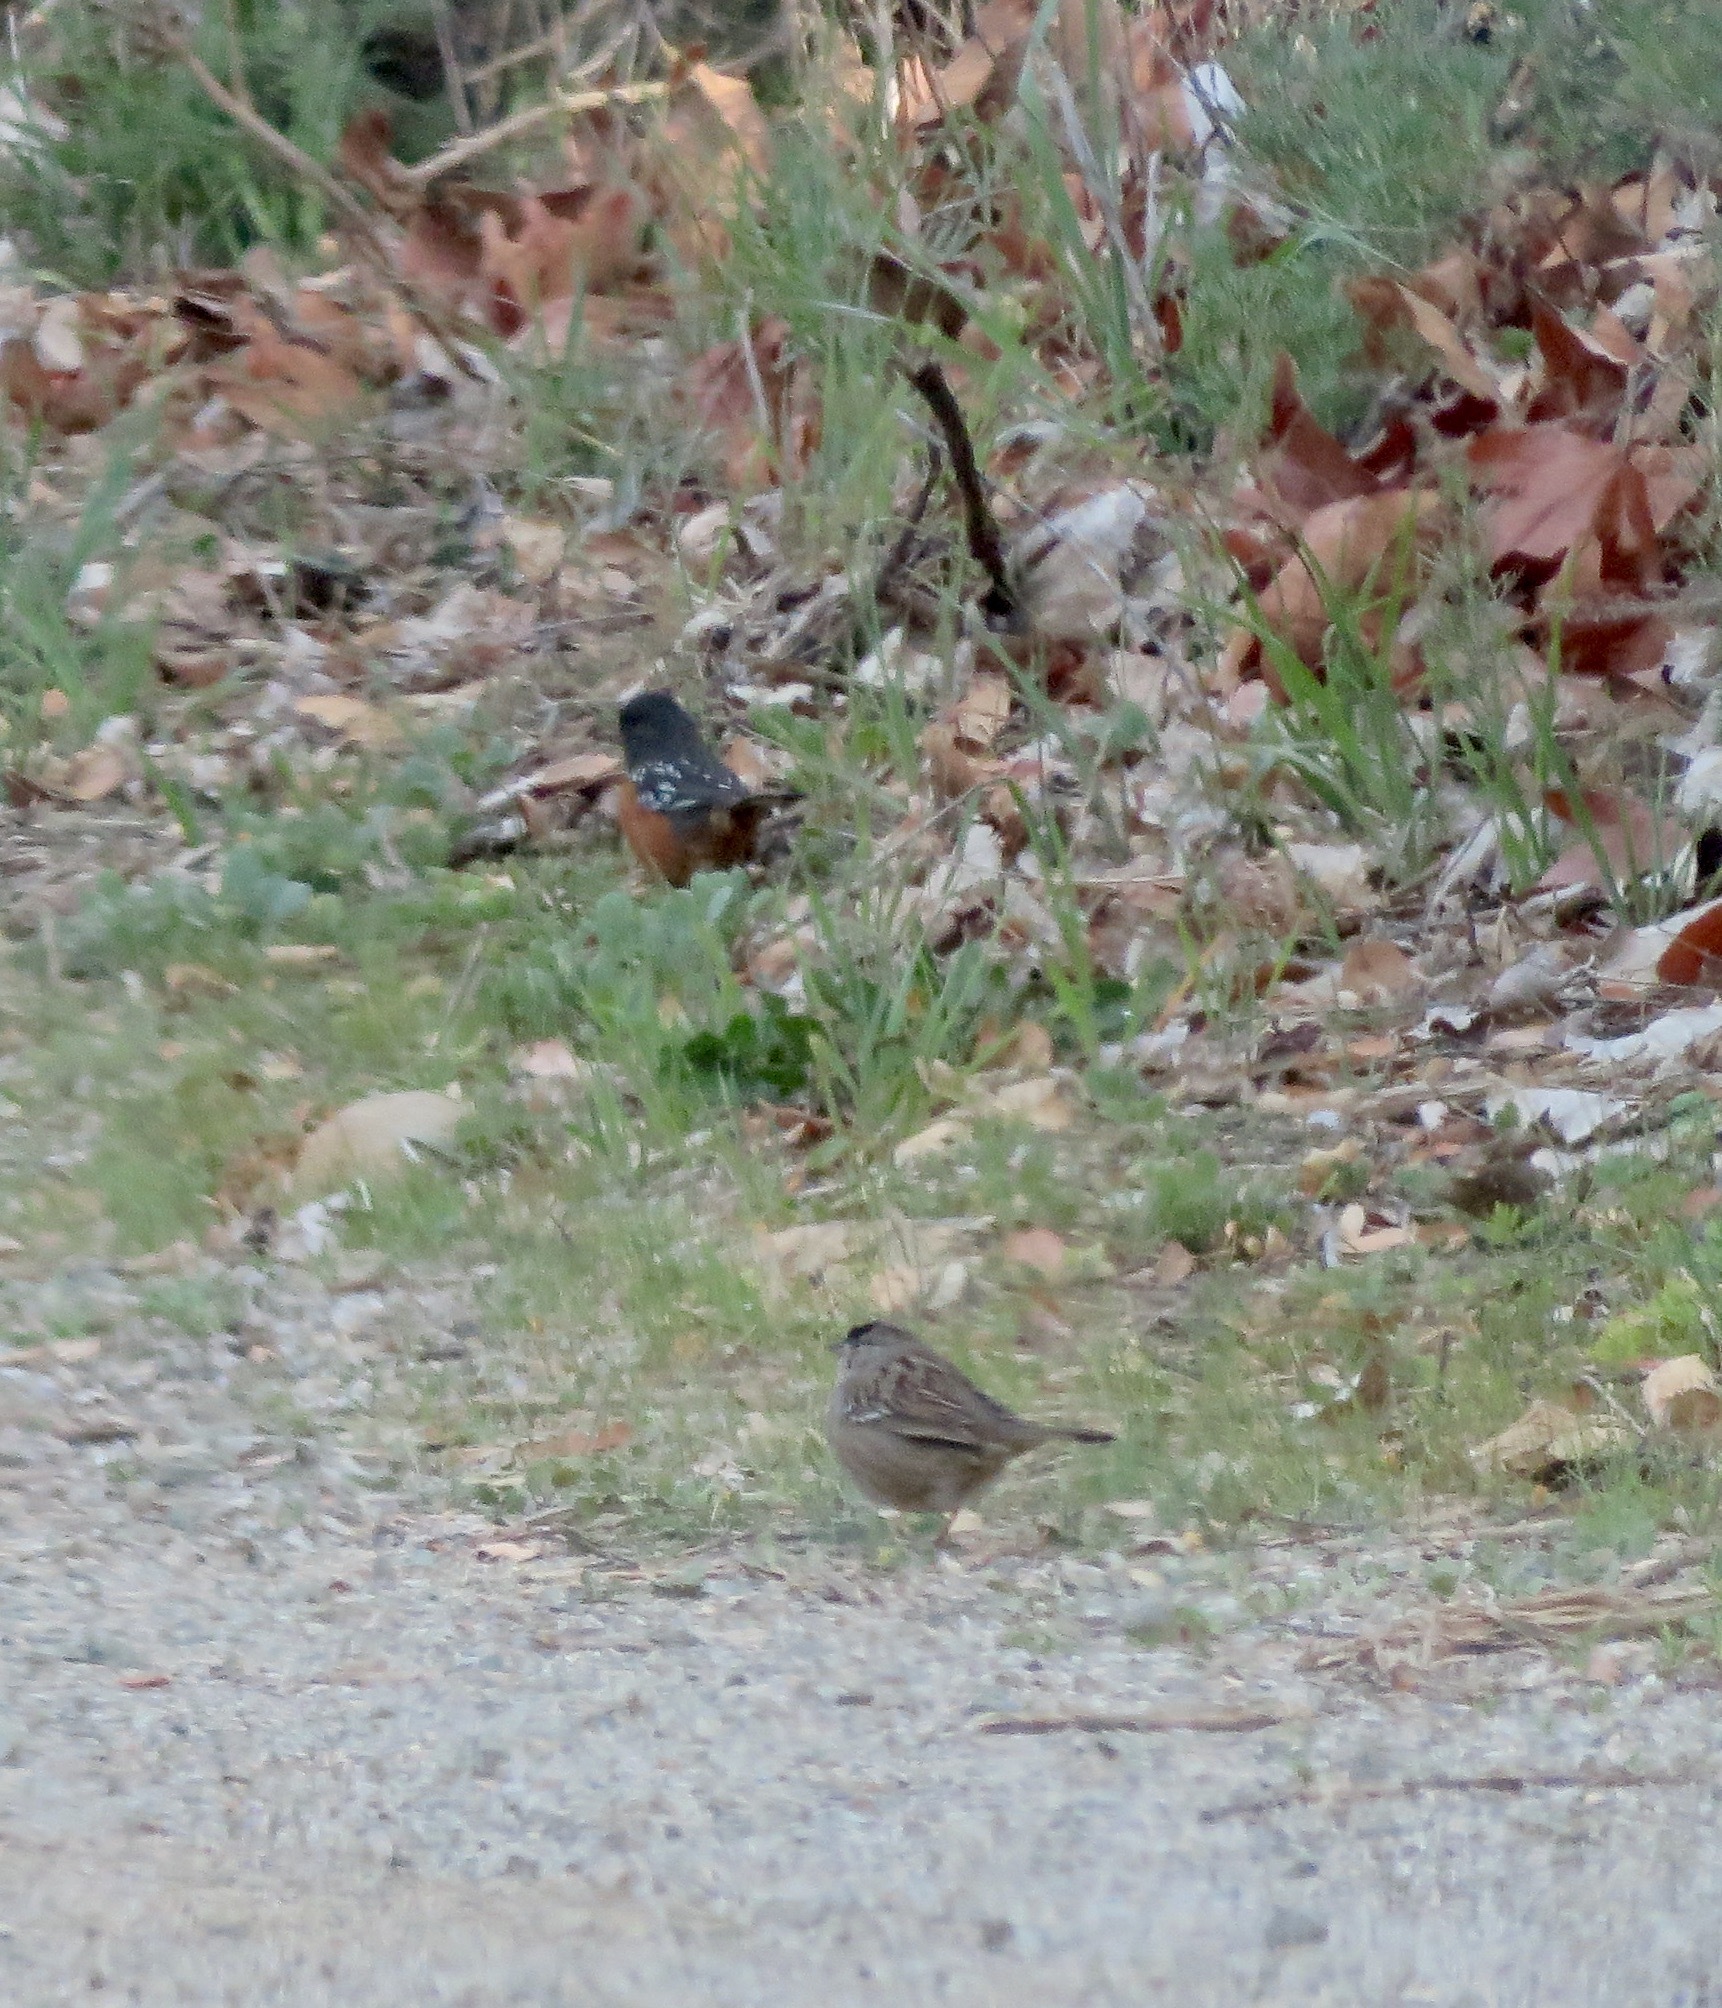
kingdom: Animalia
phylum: Chordata
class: Aves
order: Passeriformes
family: Passerellidae
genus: Pipilo
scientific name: Pipilo maculatus
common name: Spotted towhee
